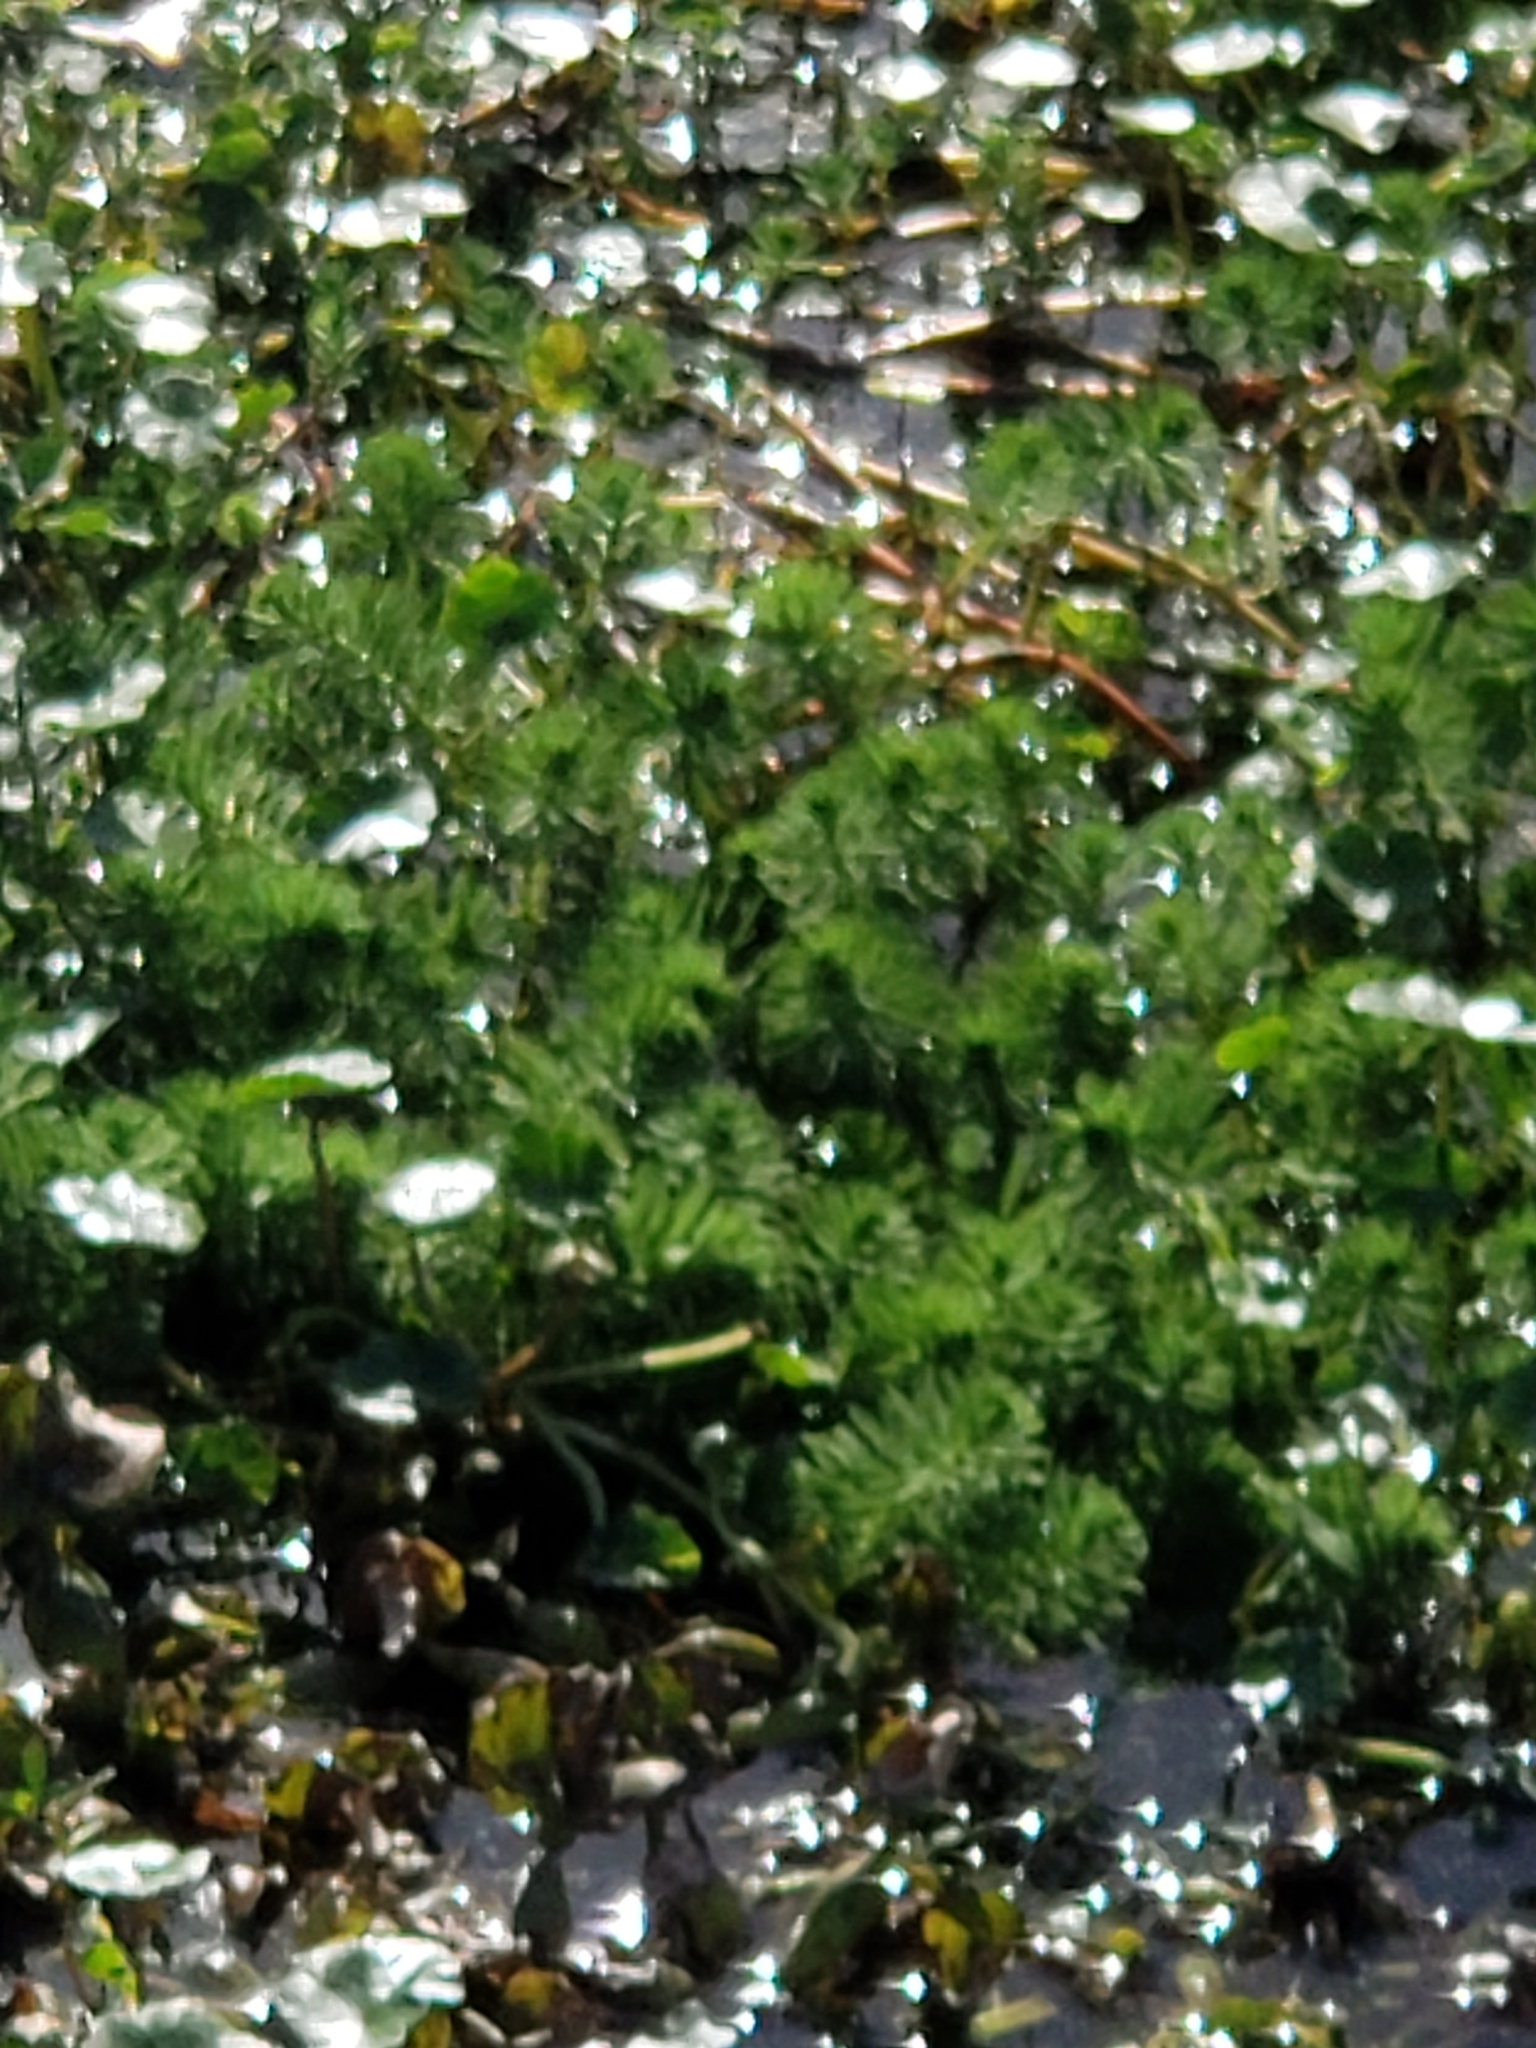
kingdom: Plantae
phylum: Tracheophyta
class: Magnoliopsida
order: Saxifragales
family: Haloragaceae
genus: Myriophyllum
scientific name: Myriophyllum aquaticum
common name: Parrot's feather
